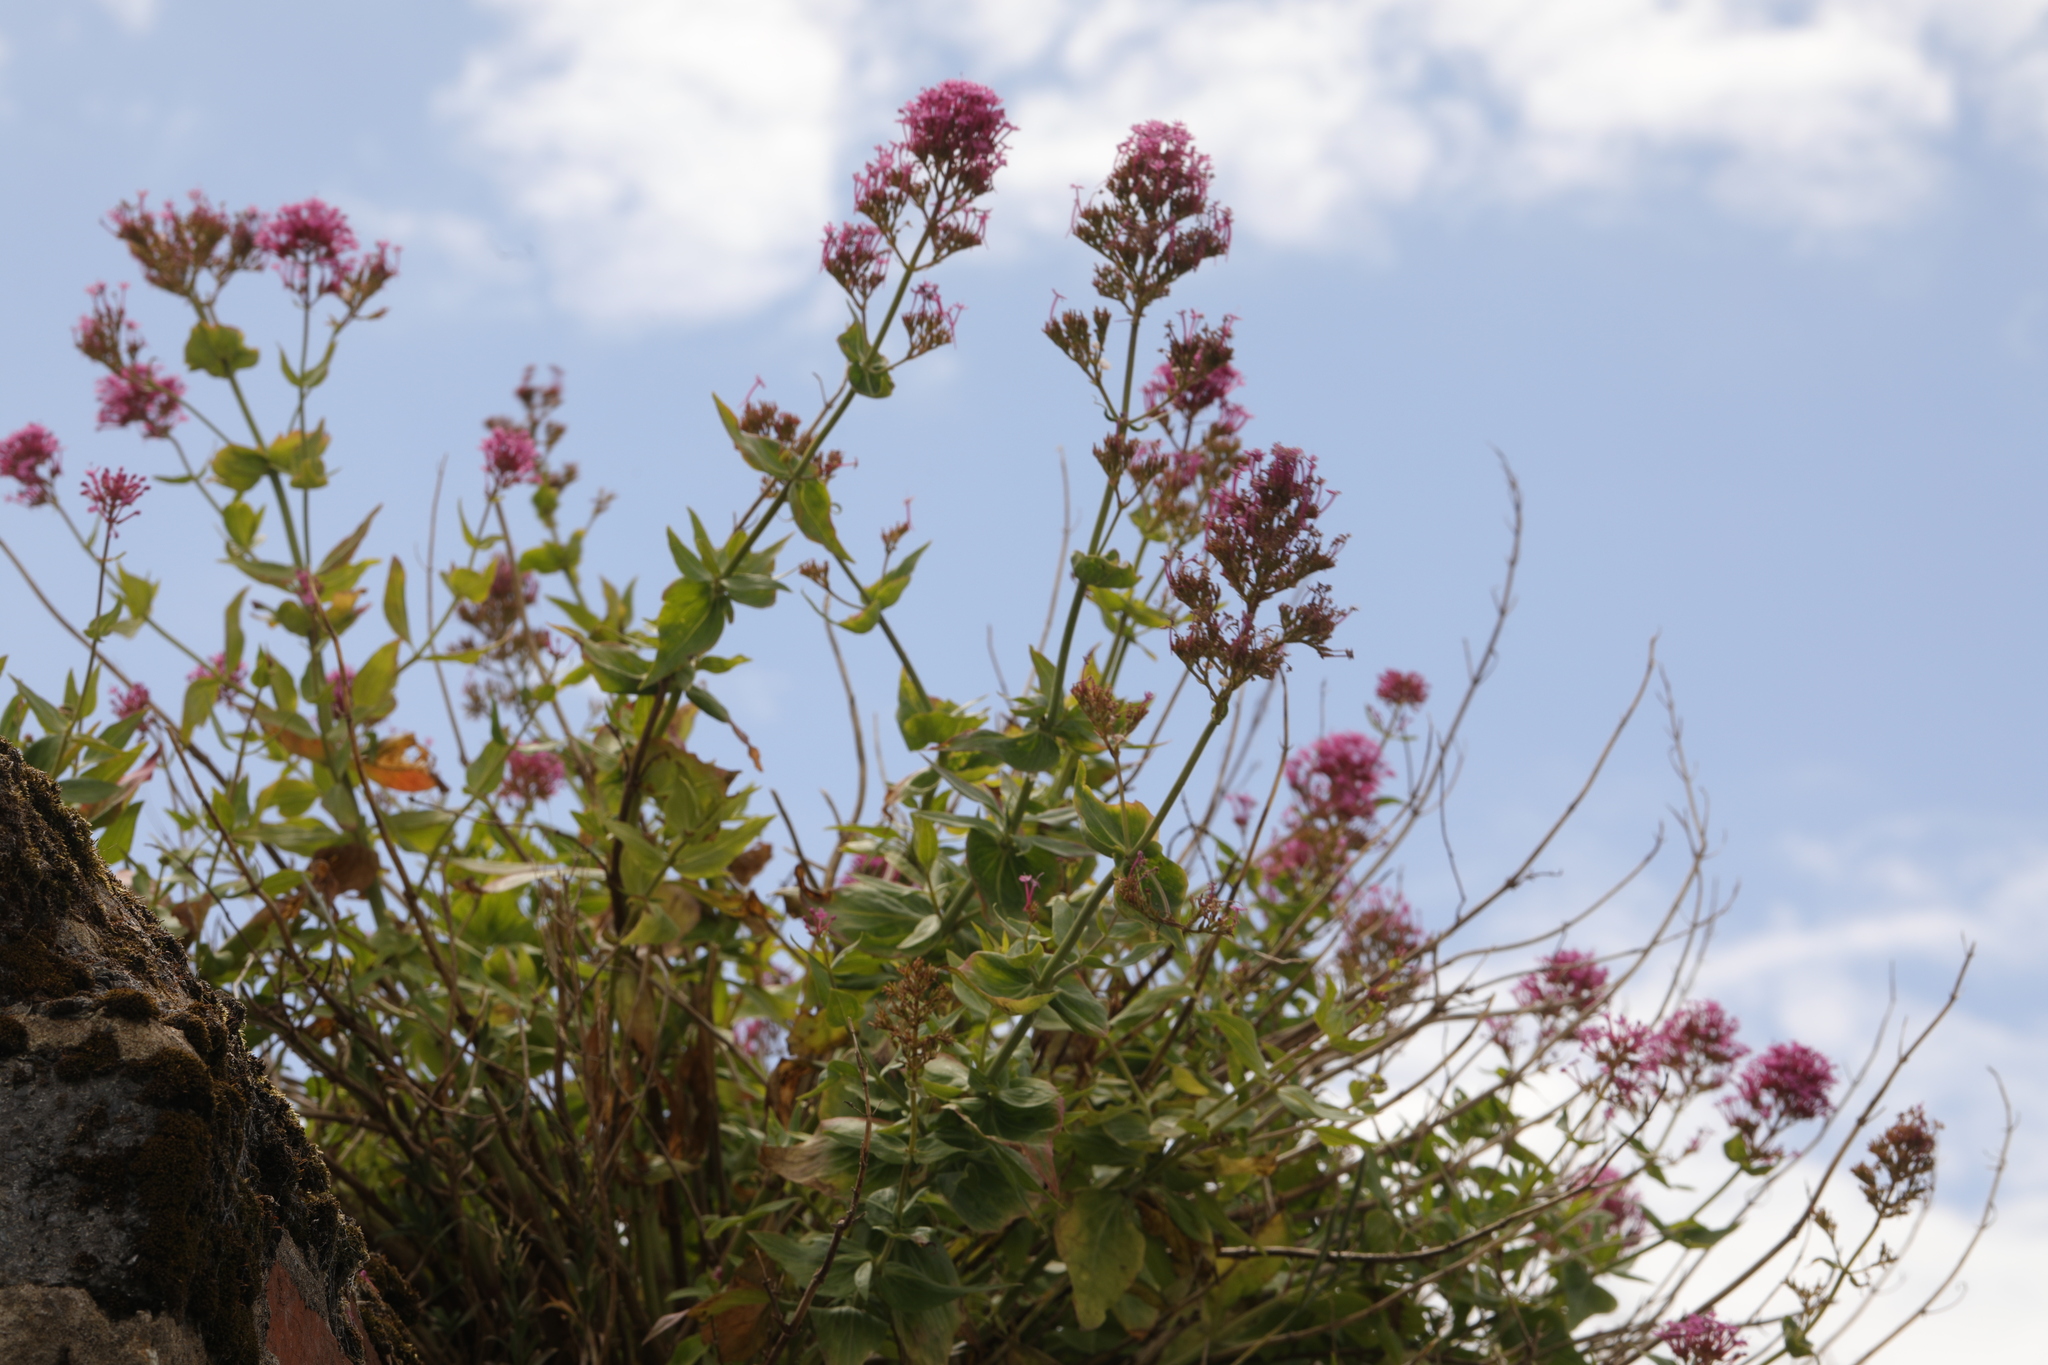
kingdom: Plantae
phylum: Tracheophyta
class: Magnoliopsida
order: Dipsacales
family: Caprifoliaceae
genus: Centranthus
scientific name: Centranthus ruber
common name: Red valerian
